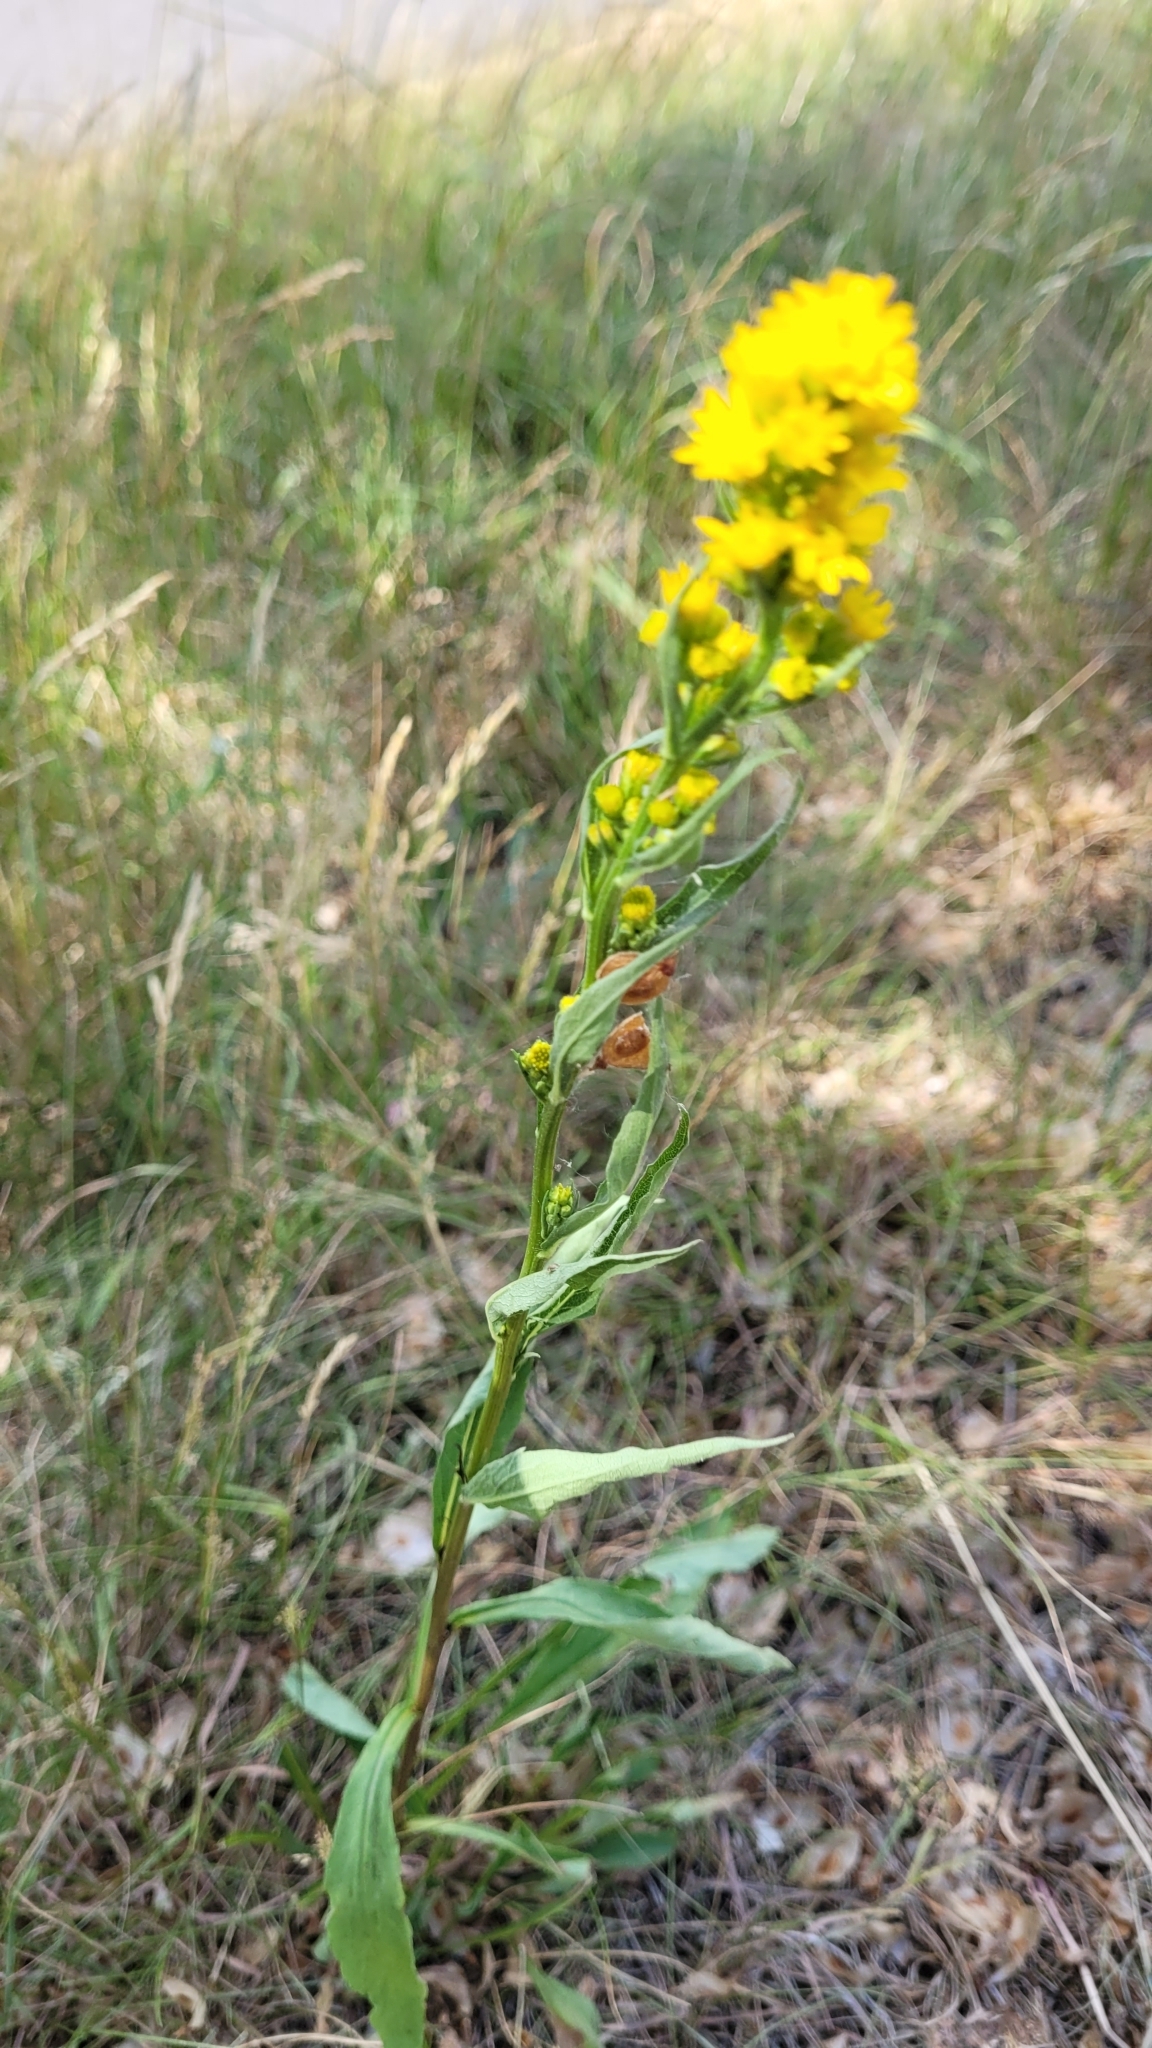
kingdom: Plantae
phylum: Tracheophyta
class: Magnoliopsida
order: Asterales
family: Asteraceae
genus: Solidago
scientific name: Solidago virgaurea
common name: Goldenrod
